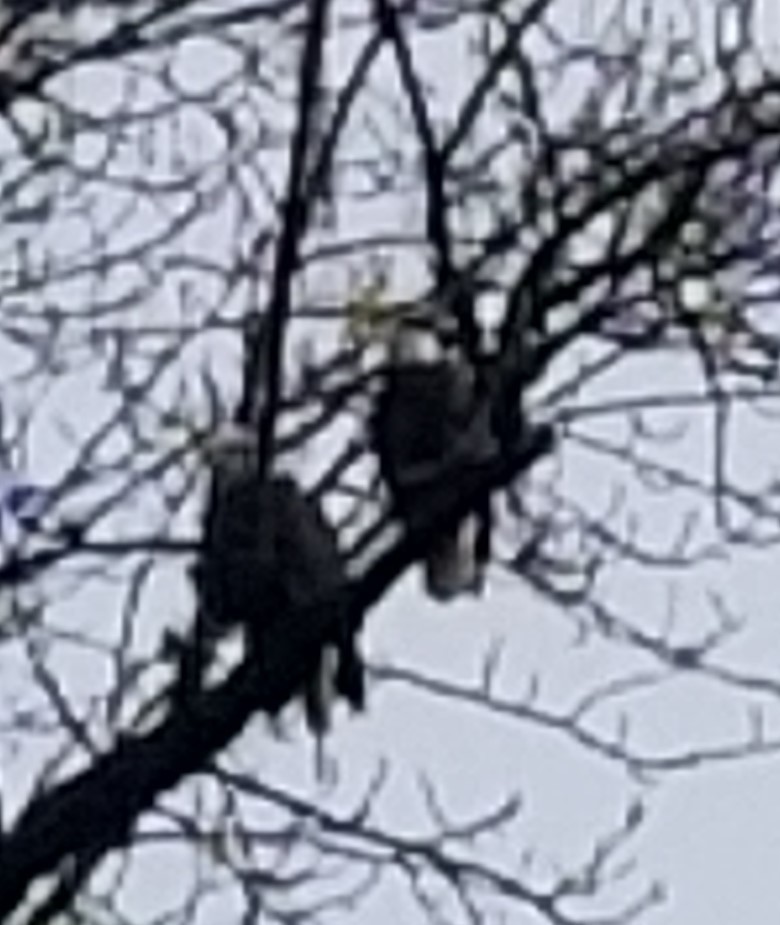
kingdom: Animalia
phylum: Chordata
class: Aves
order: Accipitriformes
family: Accipitridae
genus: Haliaeetus
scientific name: Haliaeetus leucocephalus
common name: Bald eagle
